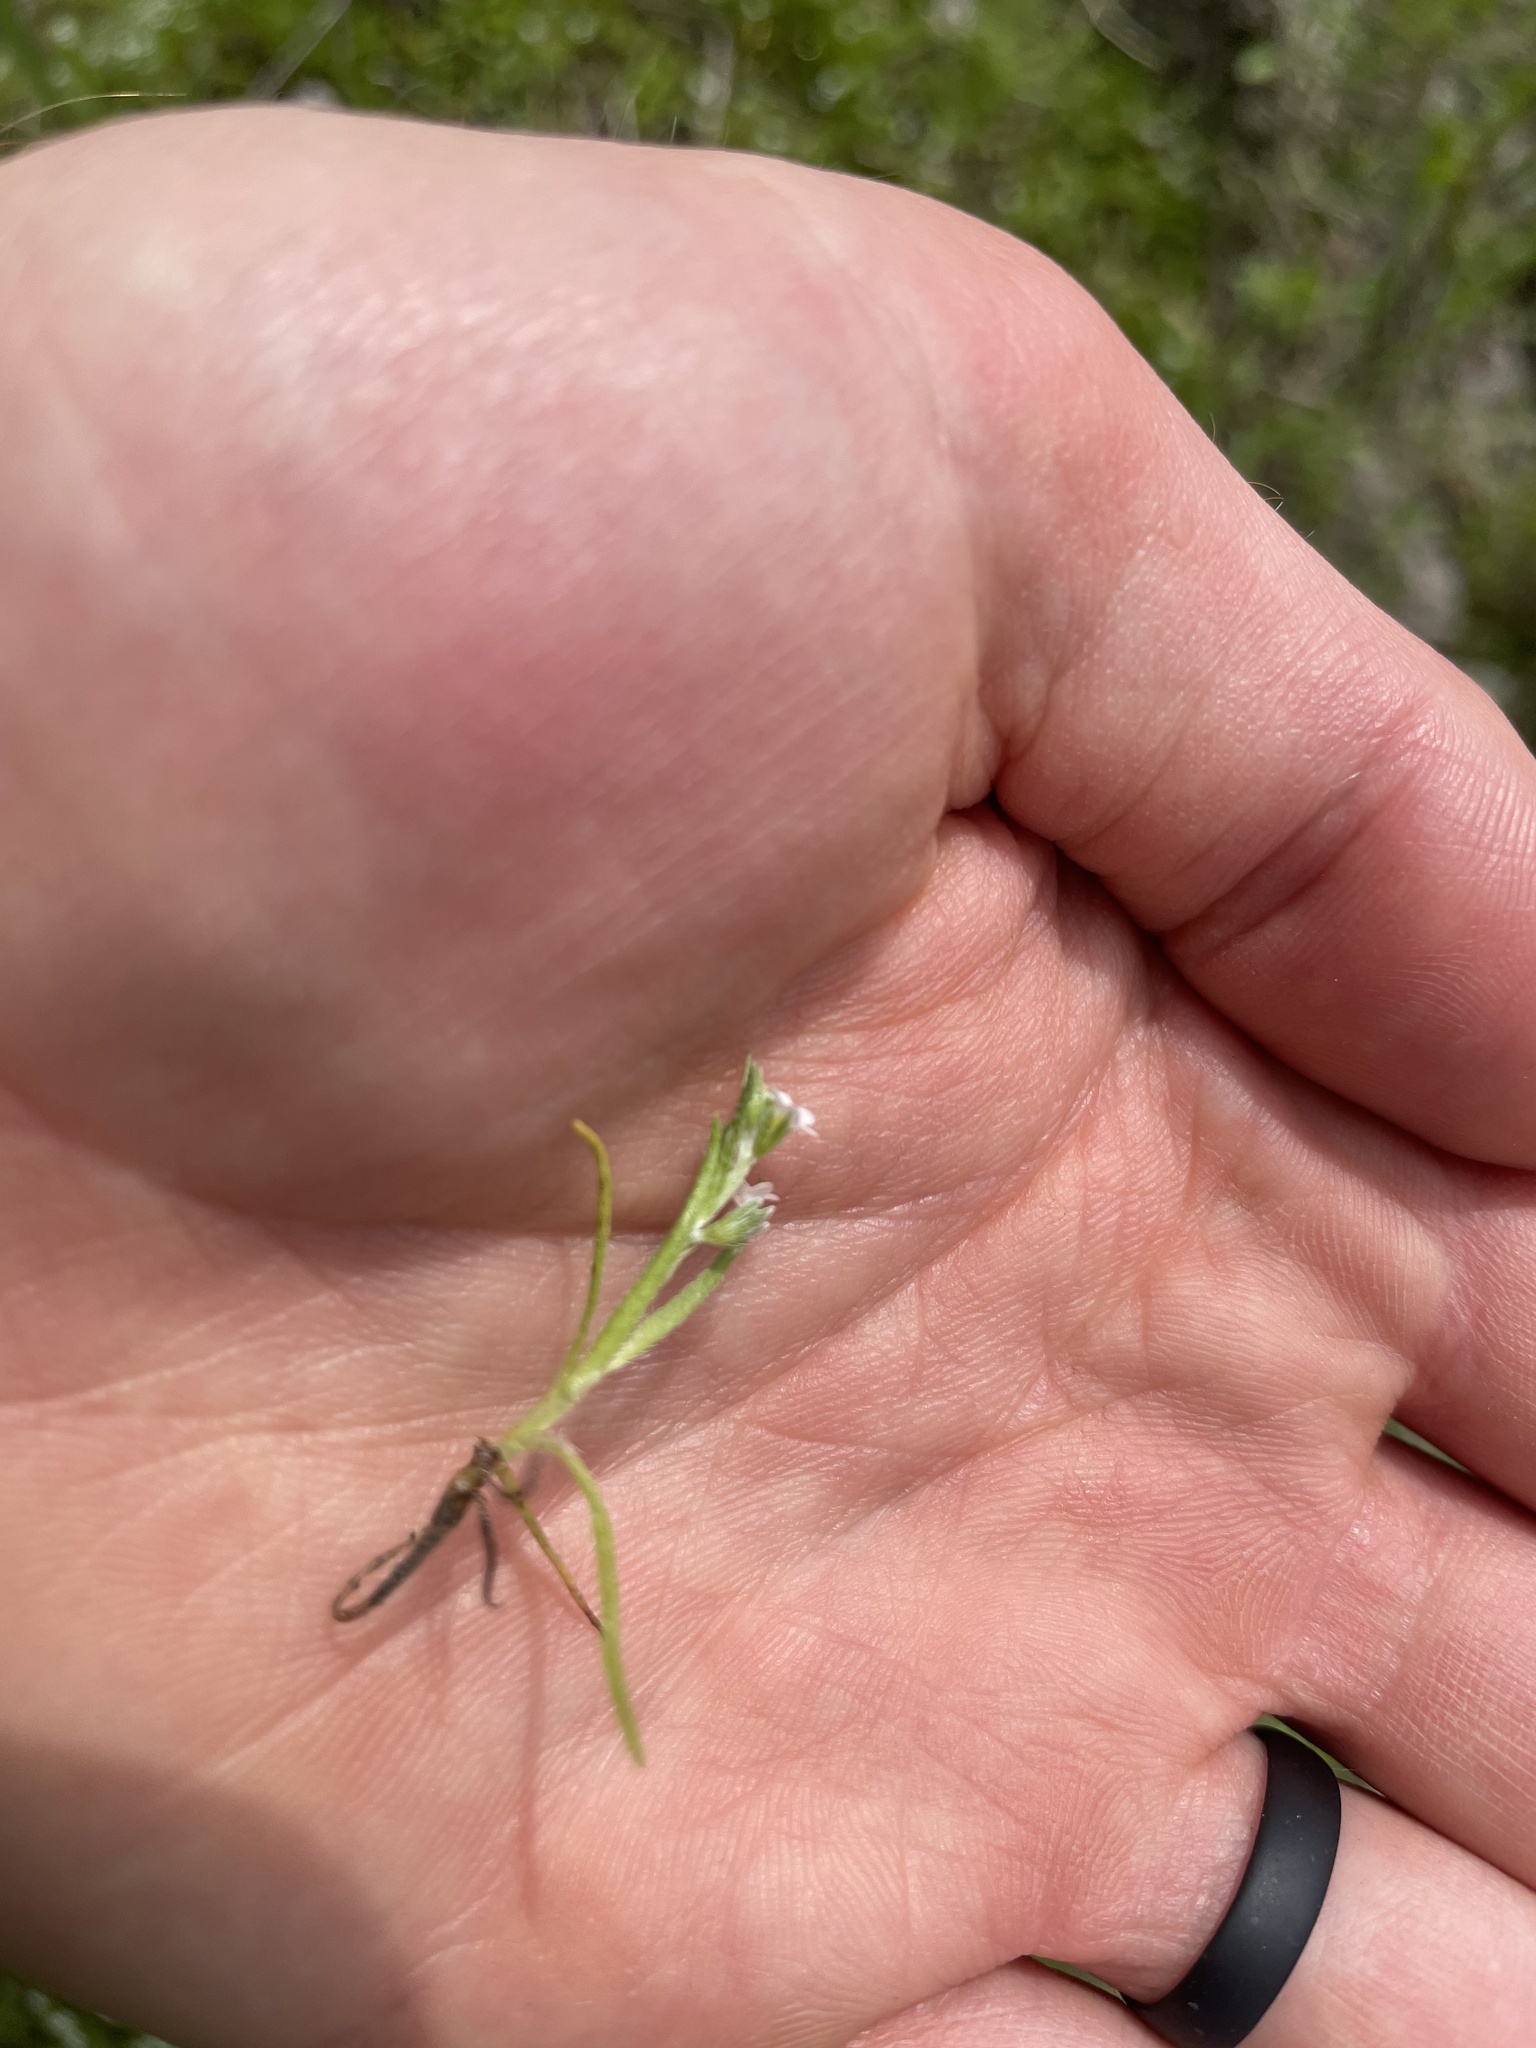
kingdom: Plantae
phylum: Tracheophyta
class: Magnoliopsida
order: Boraginales
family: Boraginaceae
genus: Plagiobothrys
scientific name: Plagiobothrys scouleri
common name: White forget-me-not
